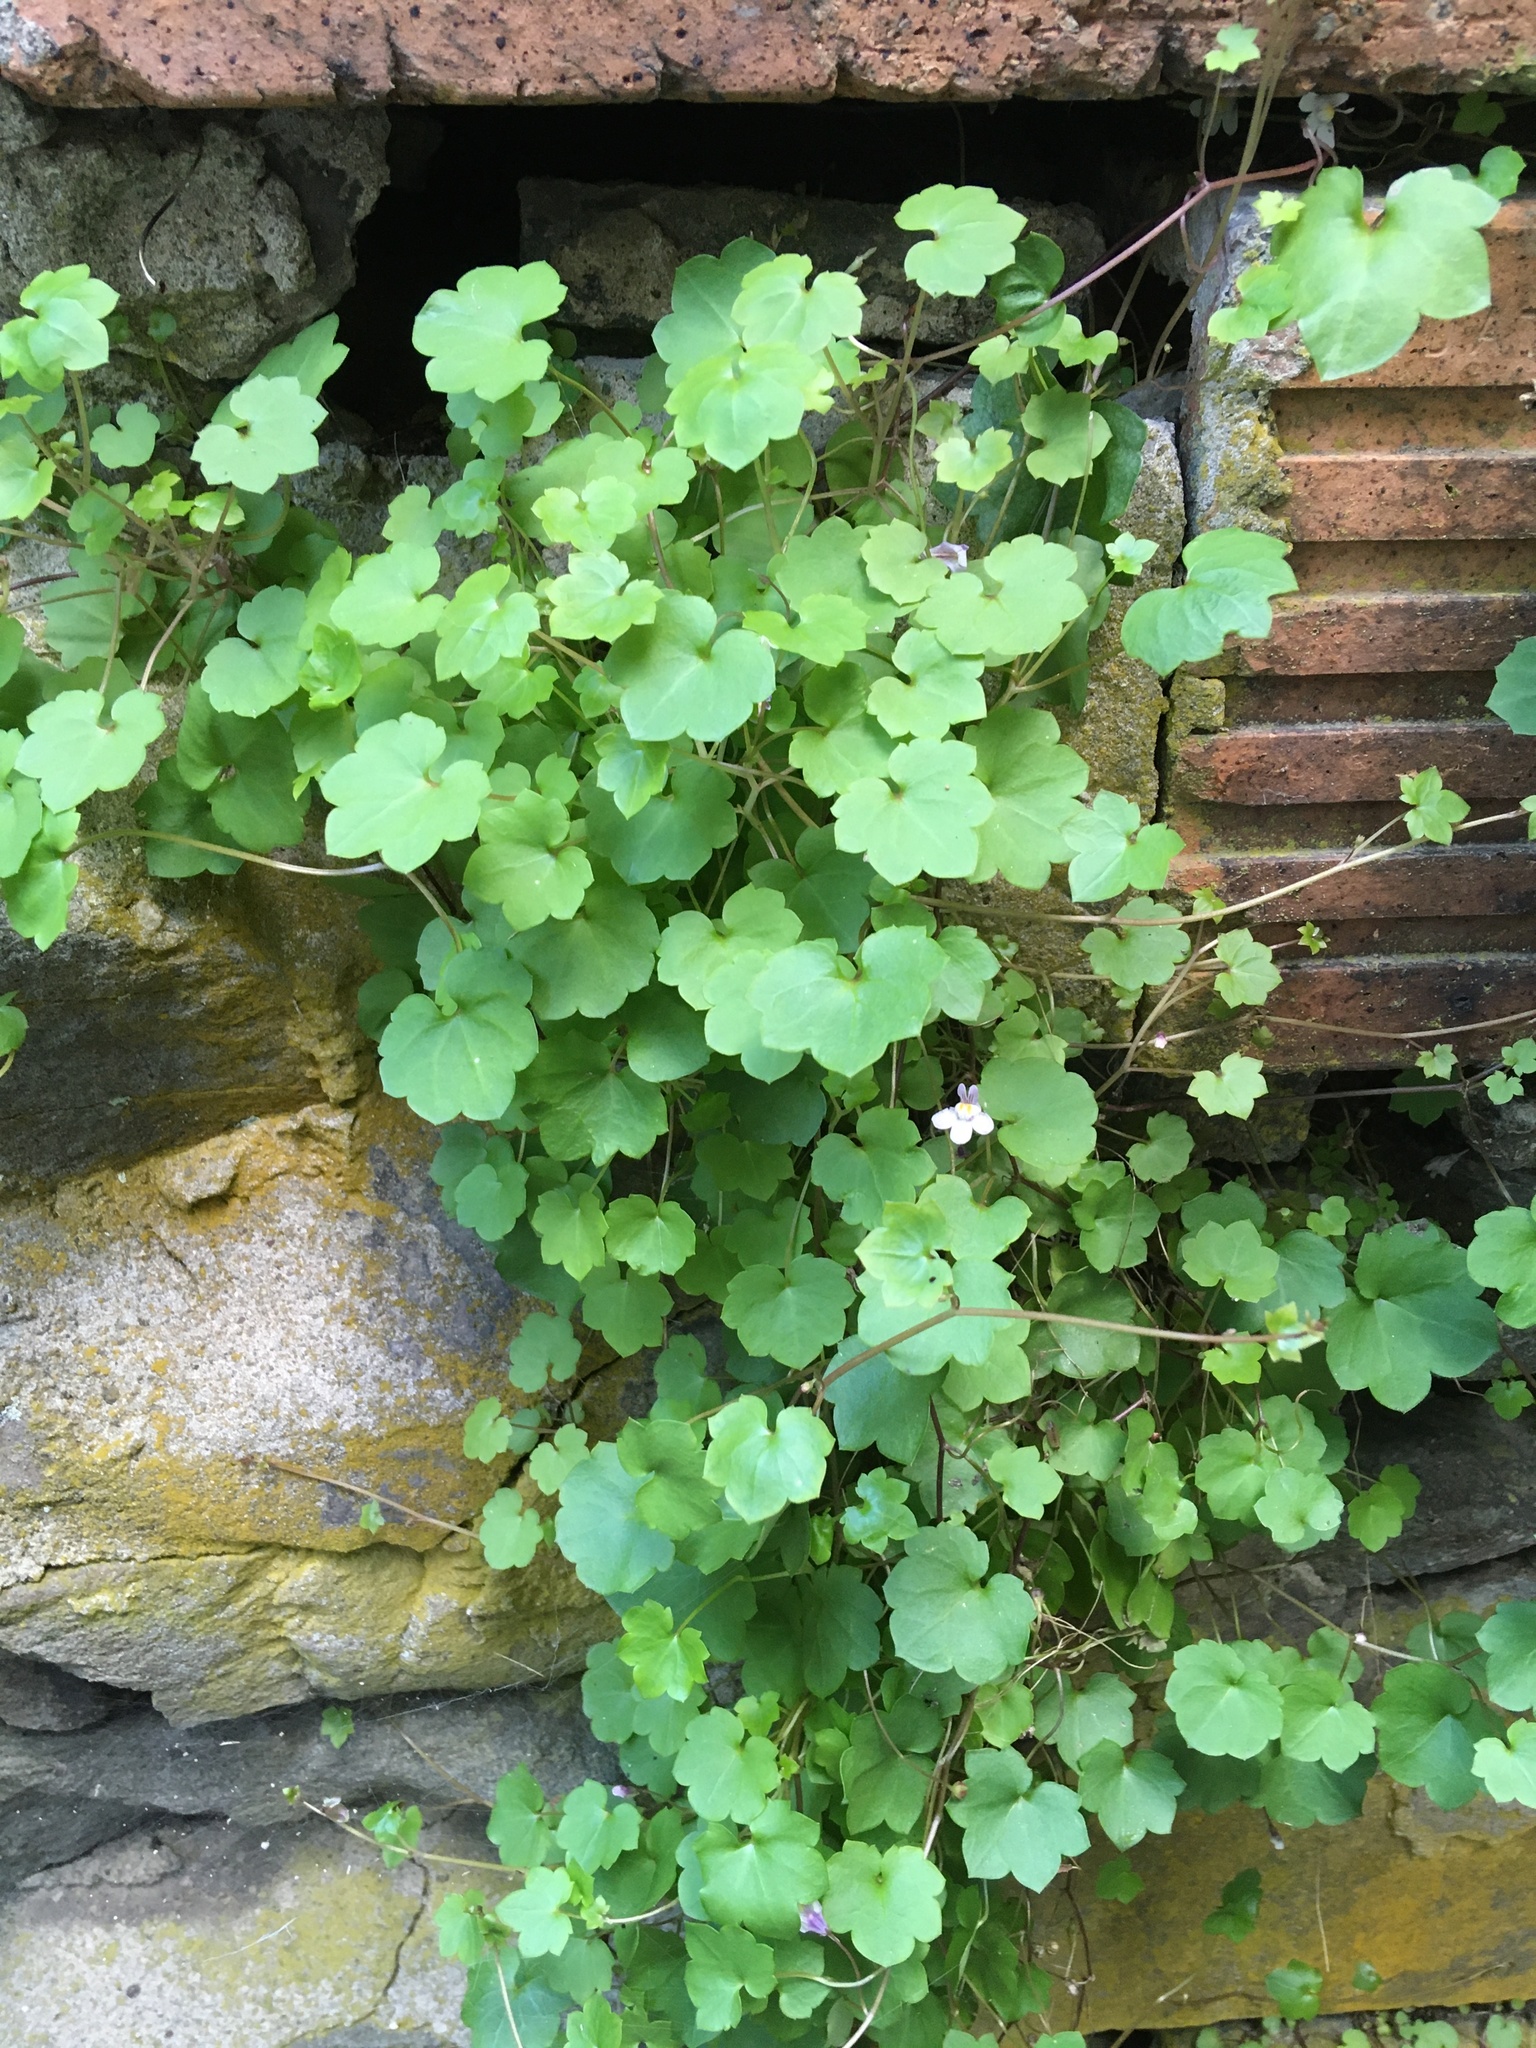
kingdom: Plantae
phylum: Tracheophyta
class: Magnoliopsida
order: Lamiales
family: Plantaginaceae
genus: Cymbalaria
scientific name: Cymbalaria muralis
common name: Ivy-leaved toadflax
